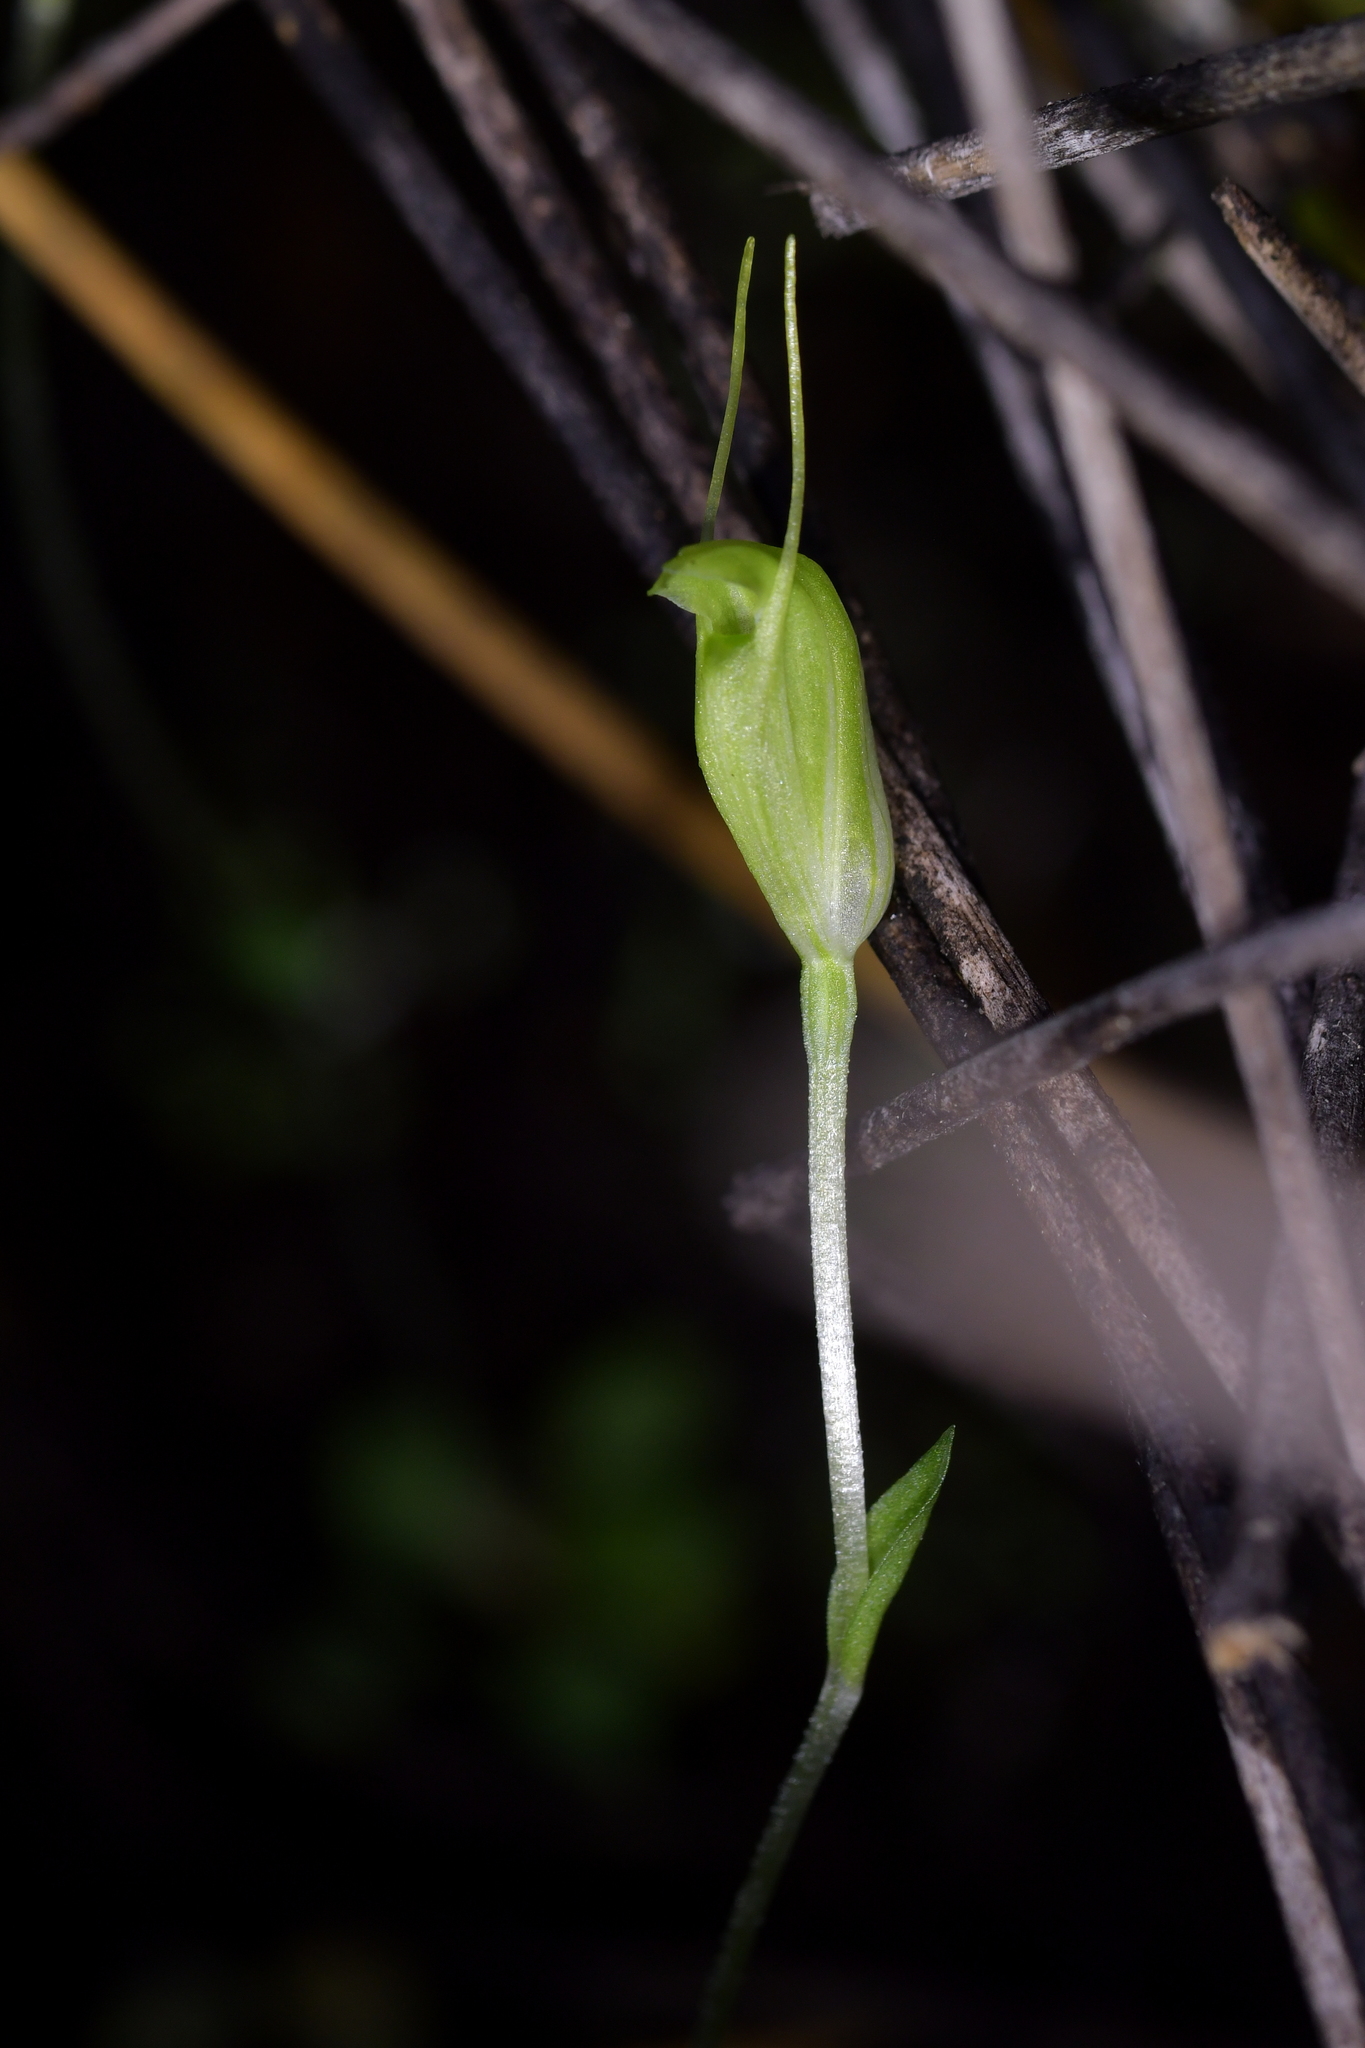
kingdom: Plantae
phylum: Tracheophyta
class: Liliopsida
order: Asparagales
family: Orchidaceae
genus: Pterostylis
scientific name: Pterostylis puberula
